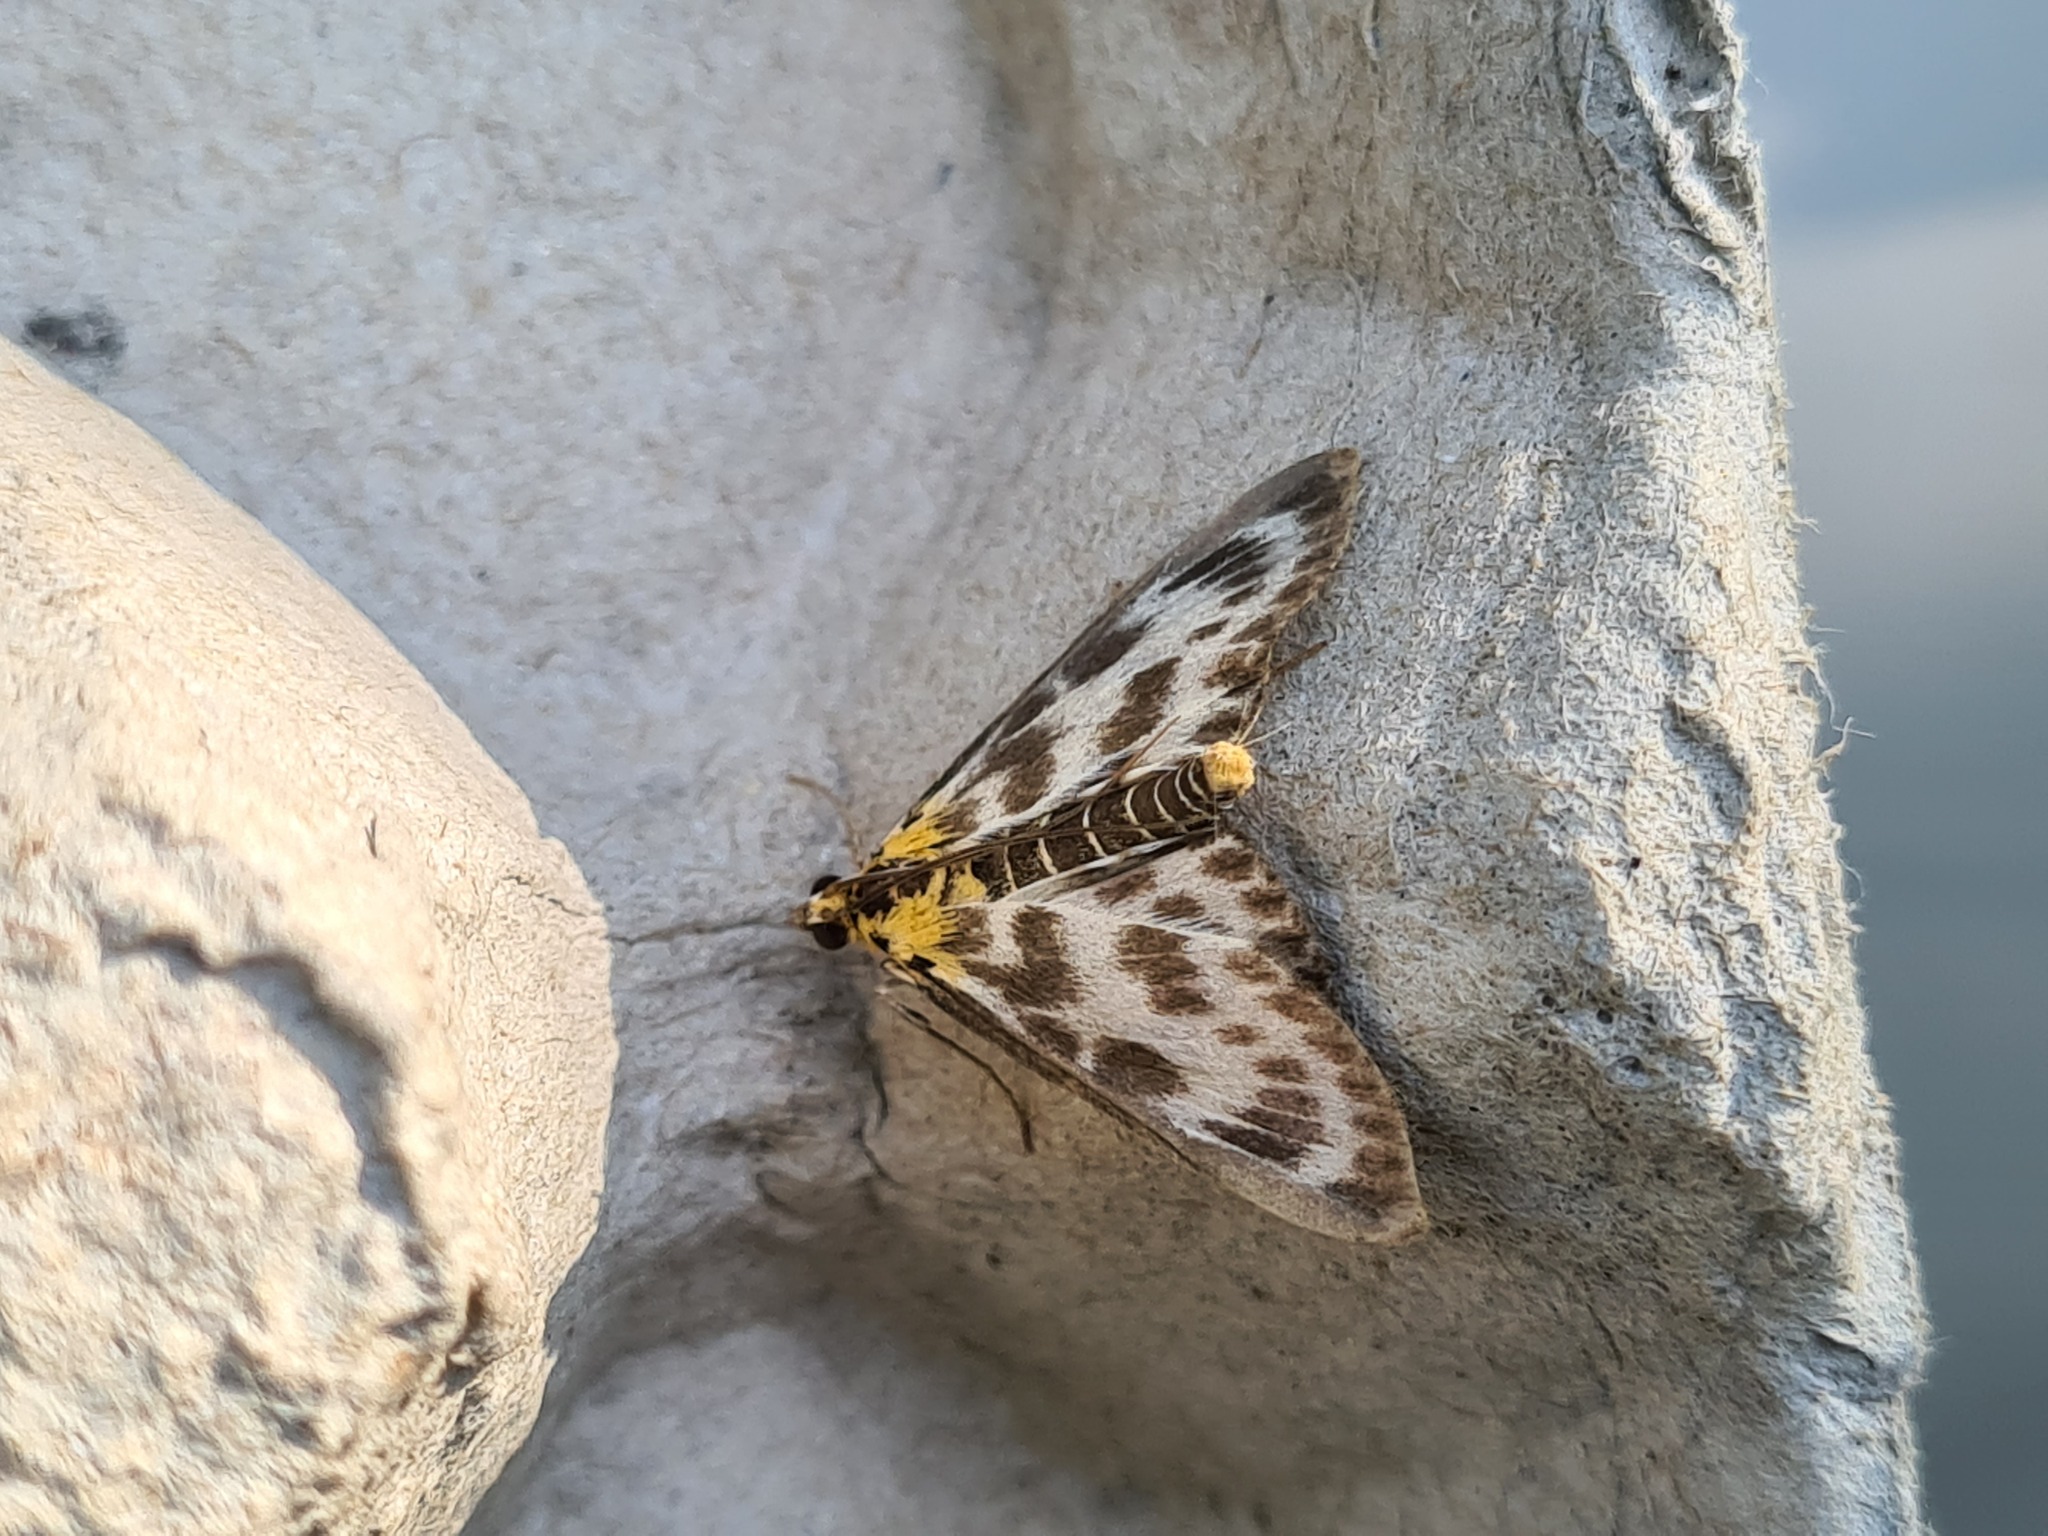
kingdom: Animalia
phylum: Arthropoda
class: Insecta
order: Lepidoptera
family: Crambidae
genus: Anania
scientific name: Anania hortulata
